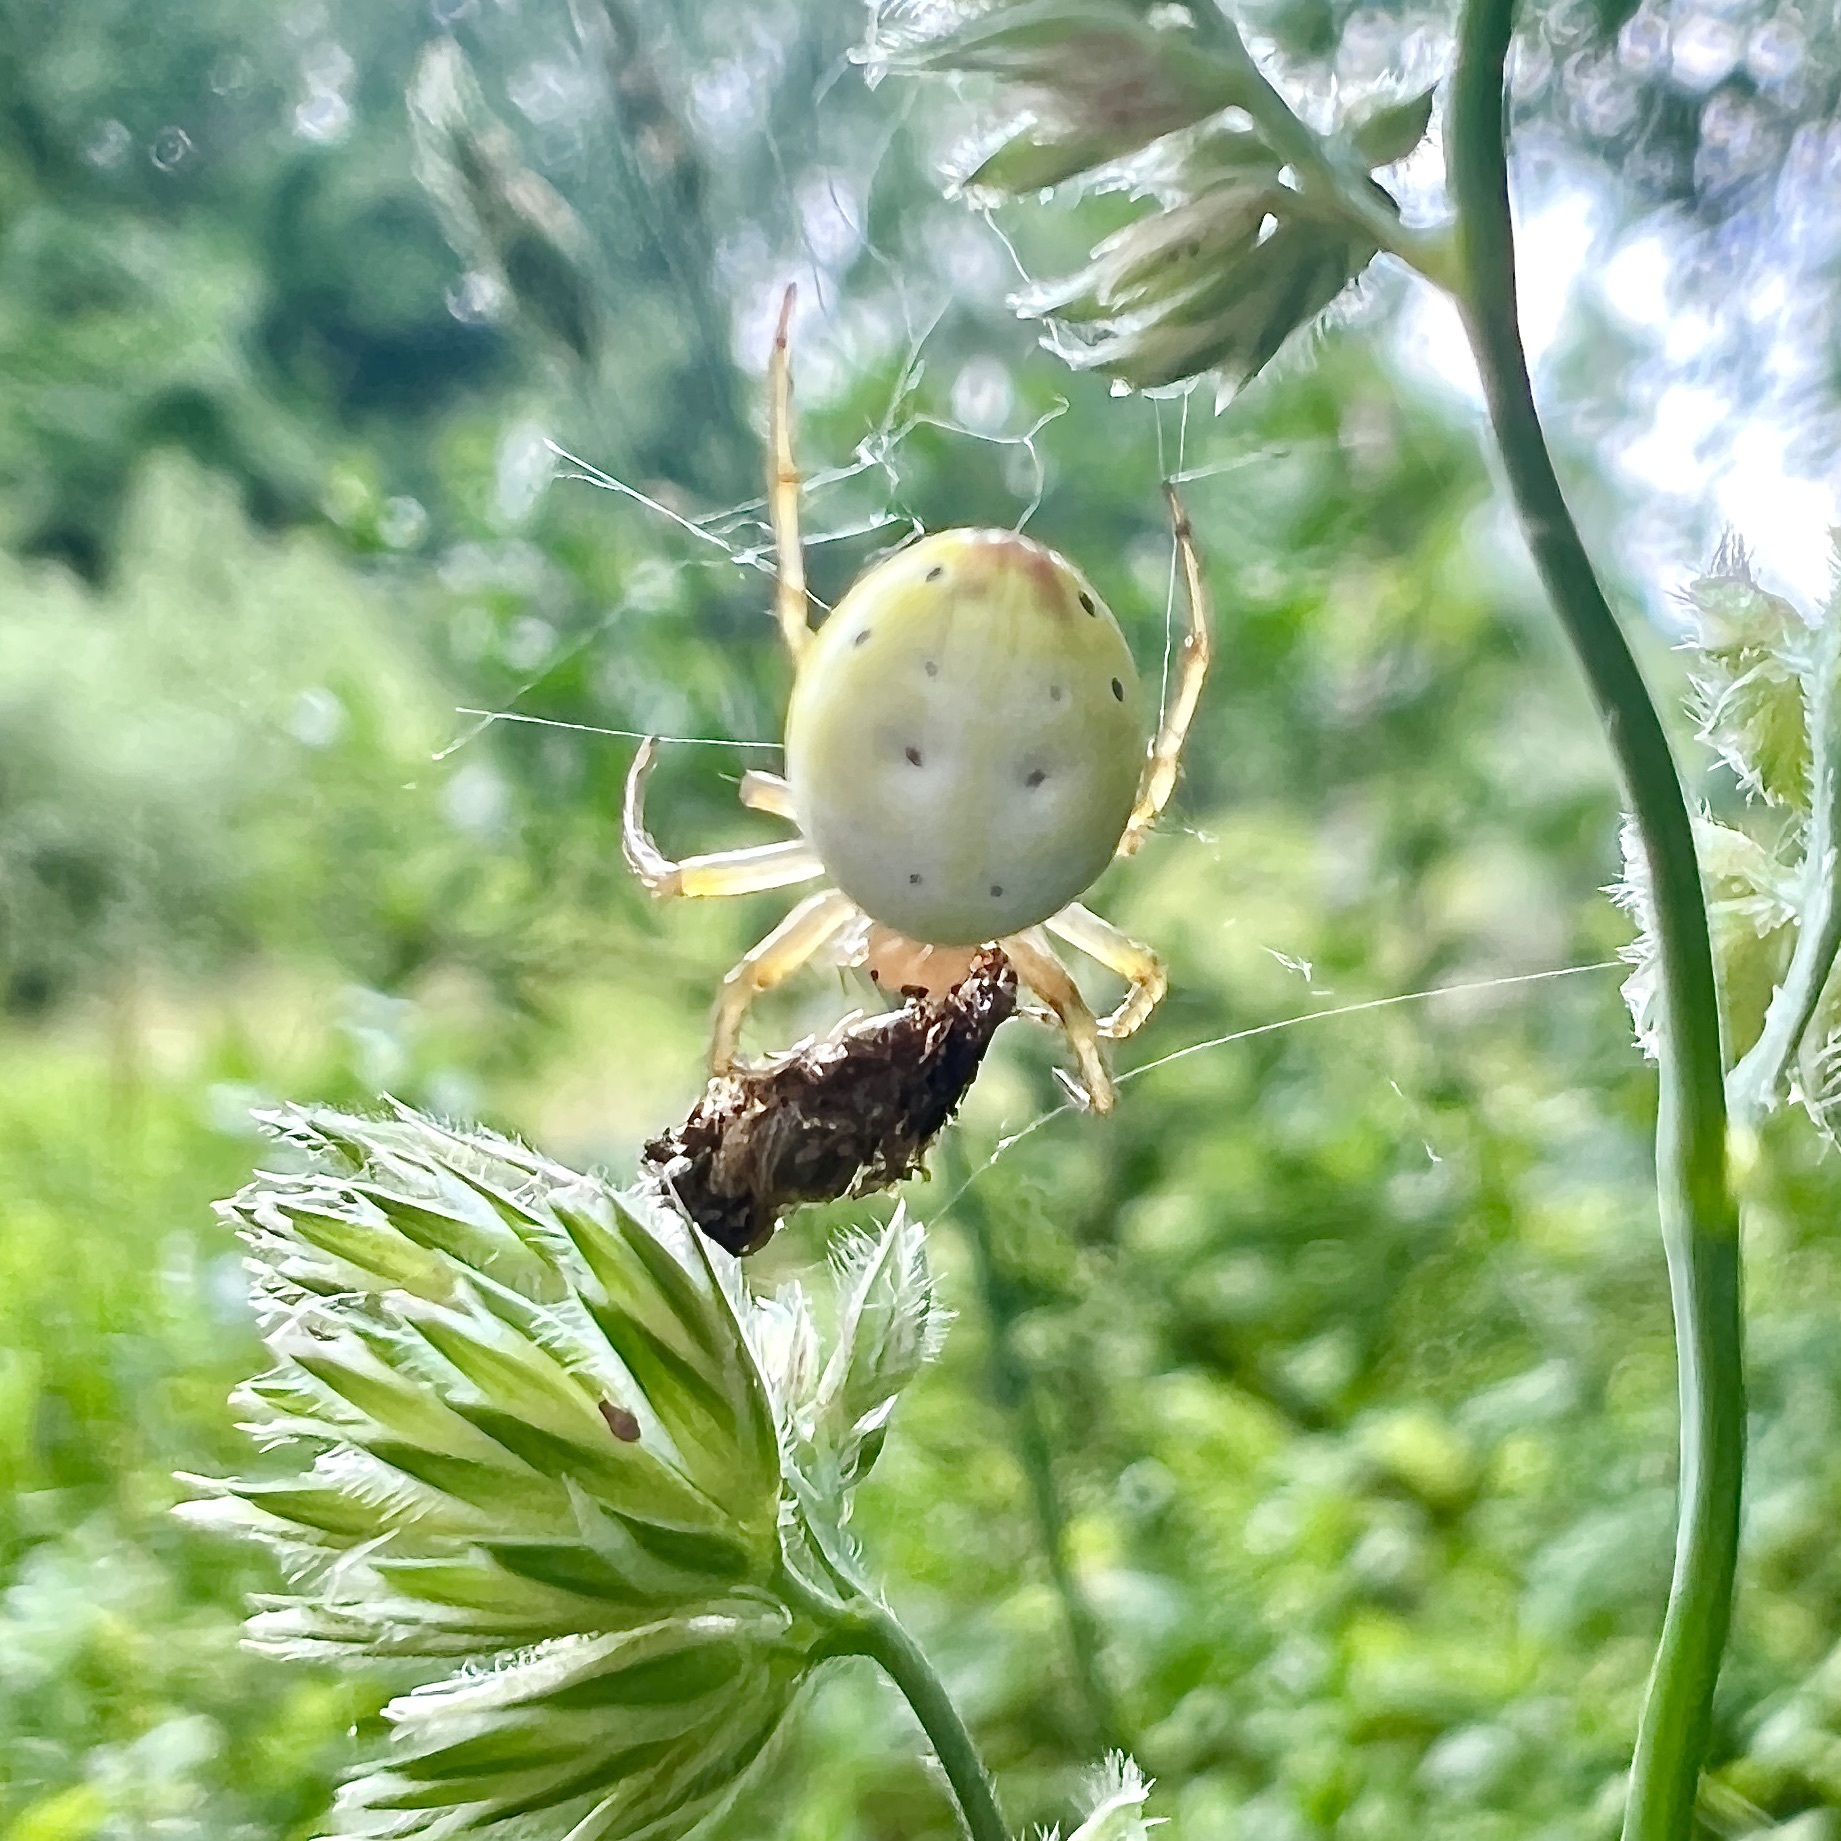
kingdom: Animalia
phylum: Arthropoda
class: Arachnida
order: Araneae
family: Araneidae
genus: Araniella
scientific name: Araniella displicata
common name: Sixspotted orb weaver
